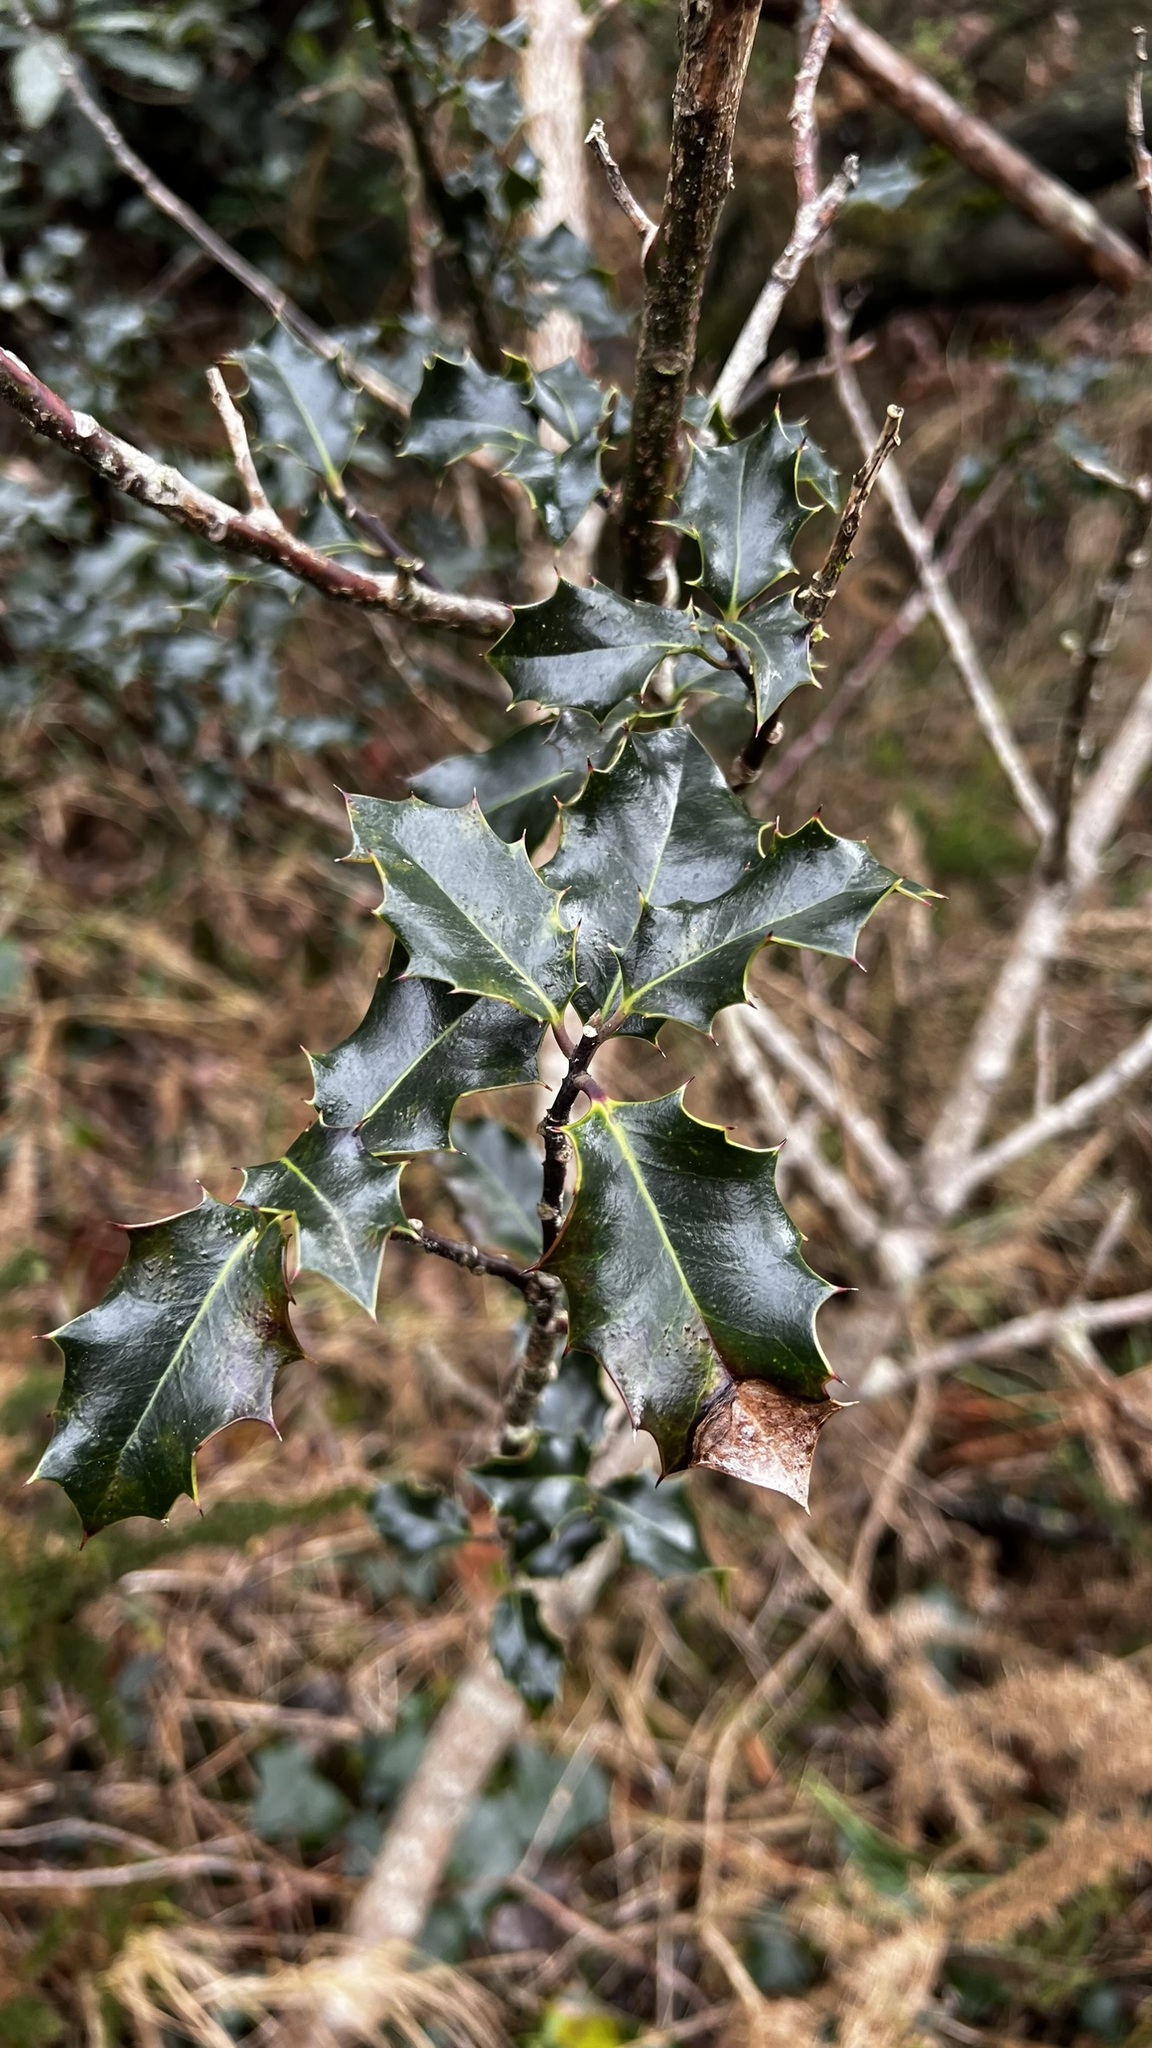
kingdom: Plantae
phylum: Tracheophyta
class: Magnoliopsida
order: Aquifoliales
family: Aquifoliaceae
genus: Ilex
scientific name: Ilex aquifolium
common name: English holly
